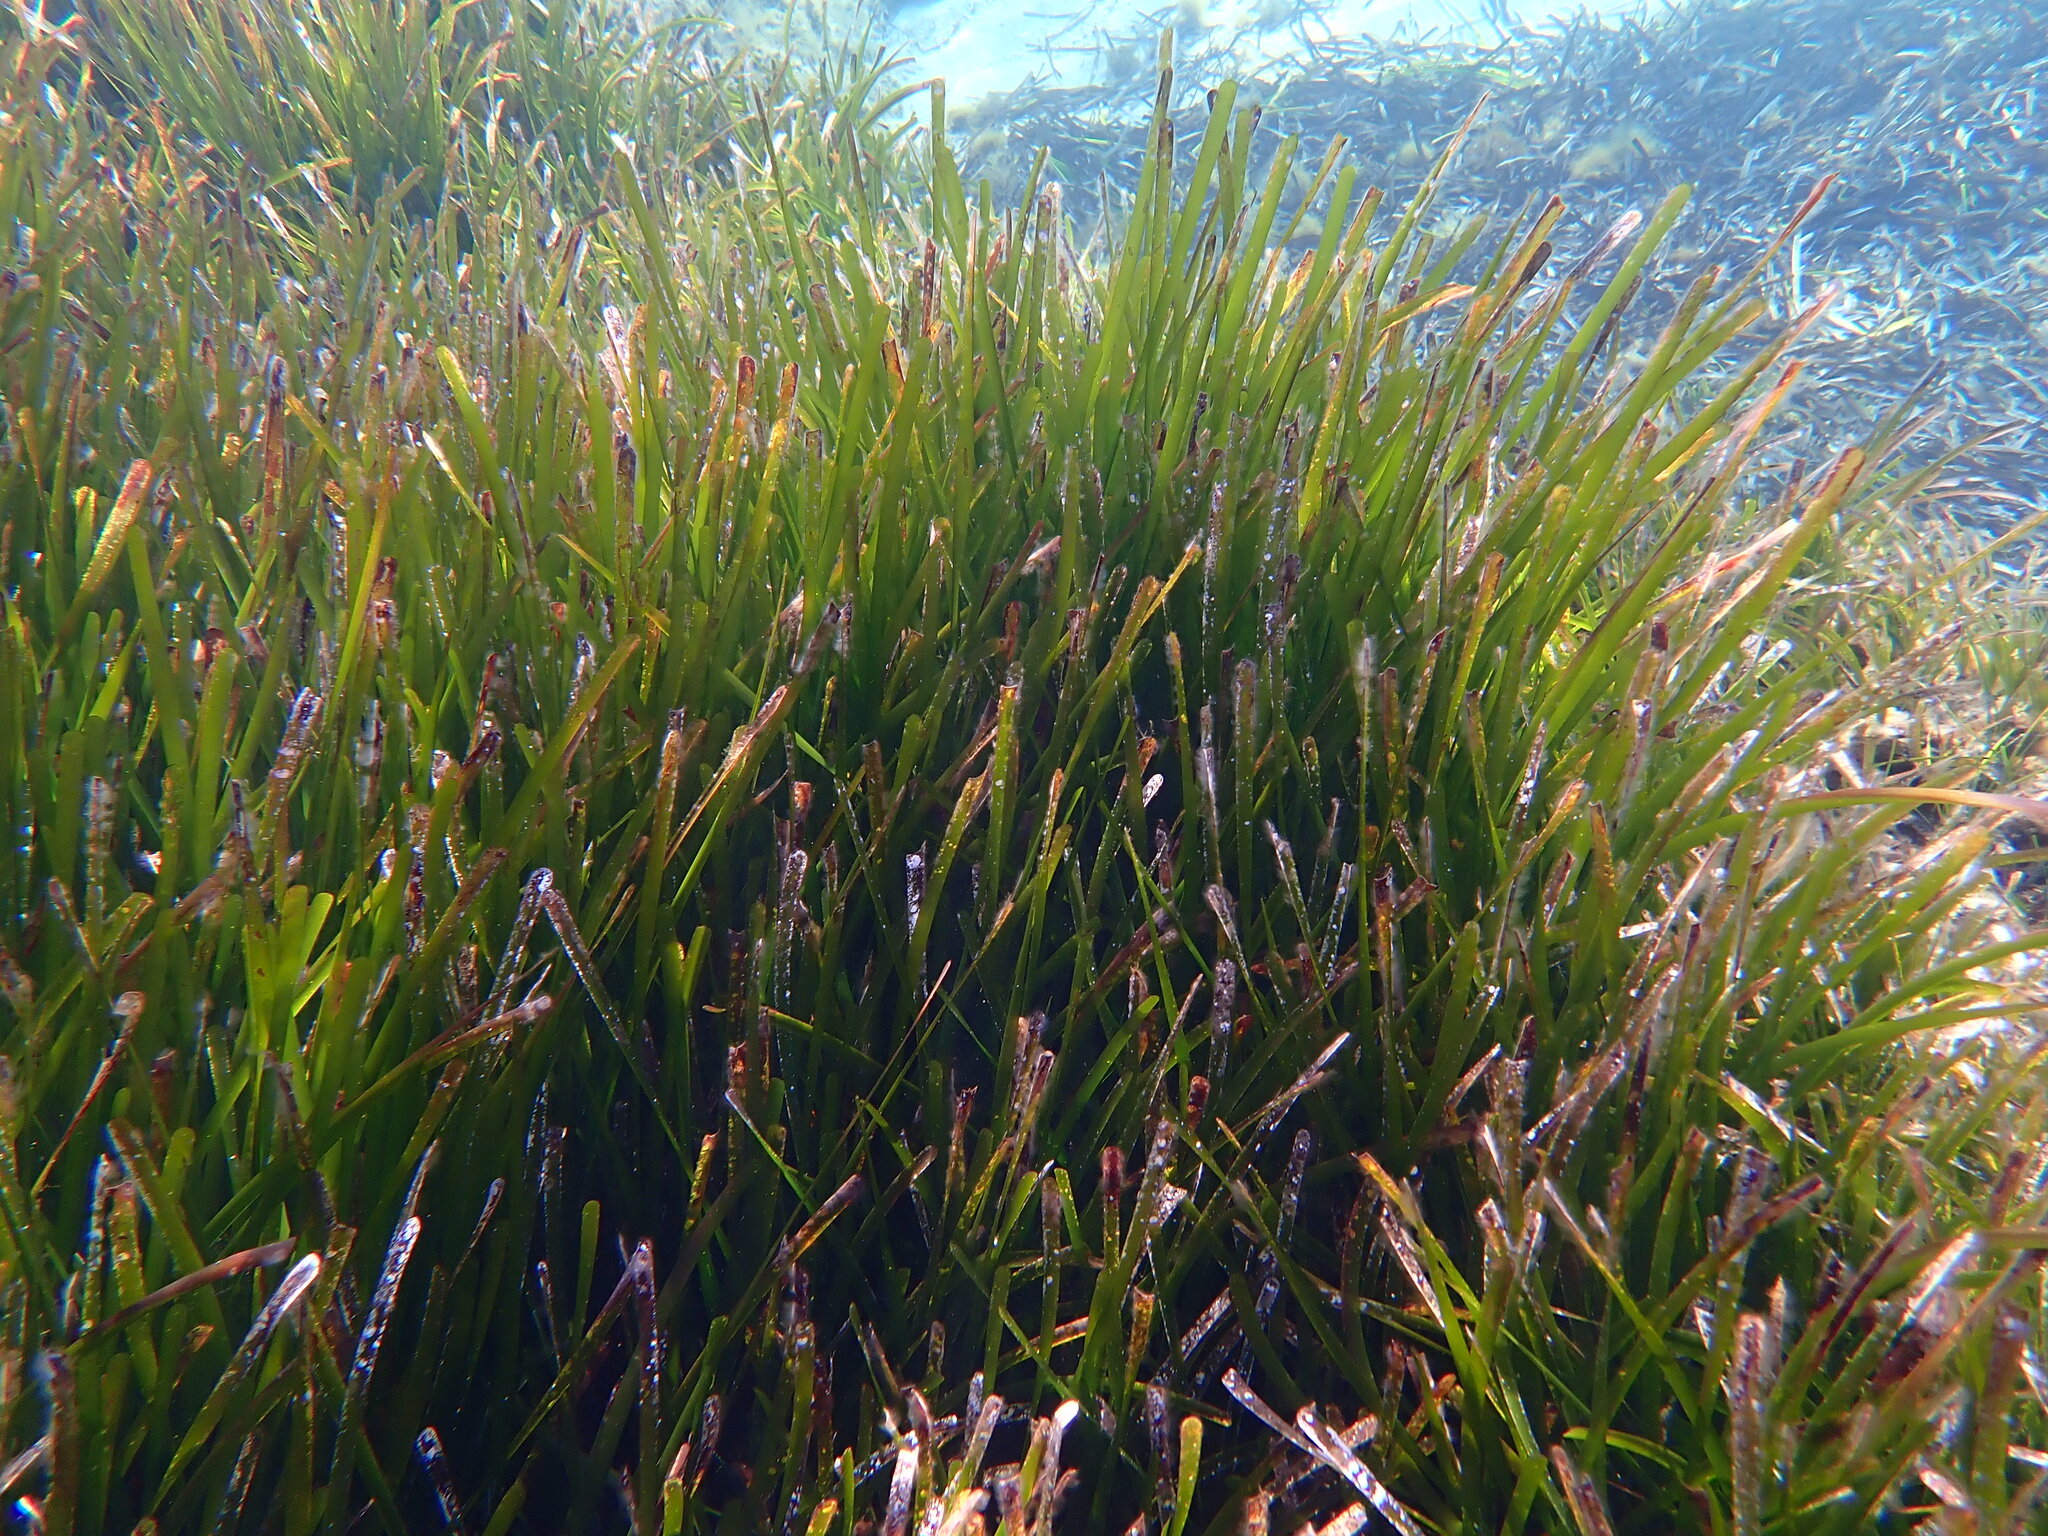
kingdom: Plantae
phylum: Tracheophyta
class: Liliopsida
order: Alismatales
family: Posidoniaceae
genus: Posidonia
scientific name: Posidonia oceanica
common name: Mediterranean tapeweed
